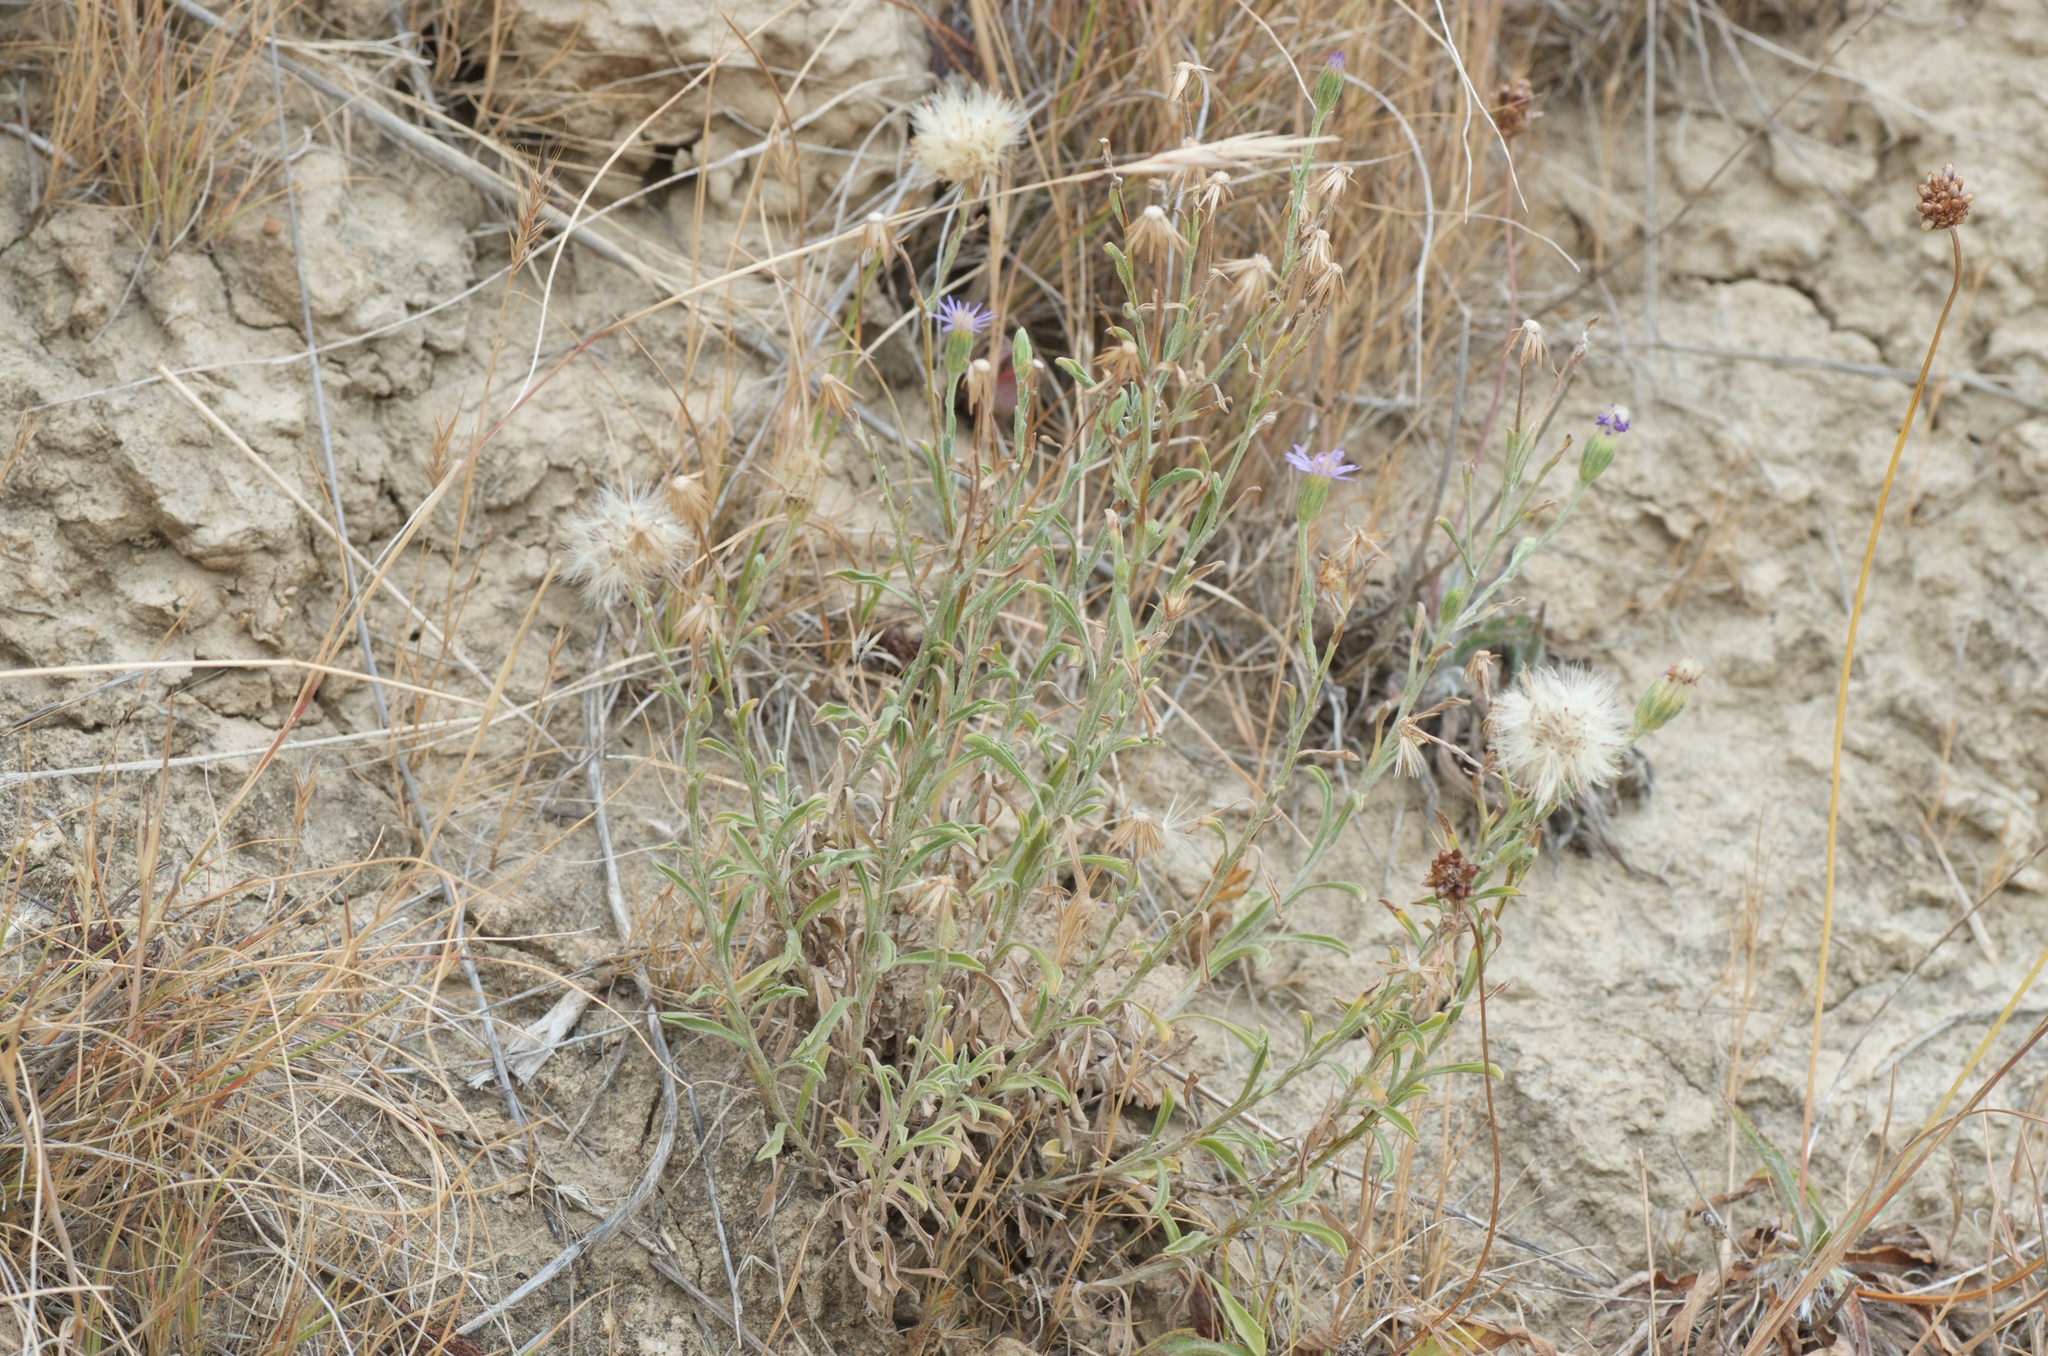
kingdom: Plantae
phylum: Tracheophyta
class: Magnoliopsida
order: Asterales
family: Asteraceae
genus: Vittadinia
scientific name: Vittadinia gracilis
